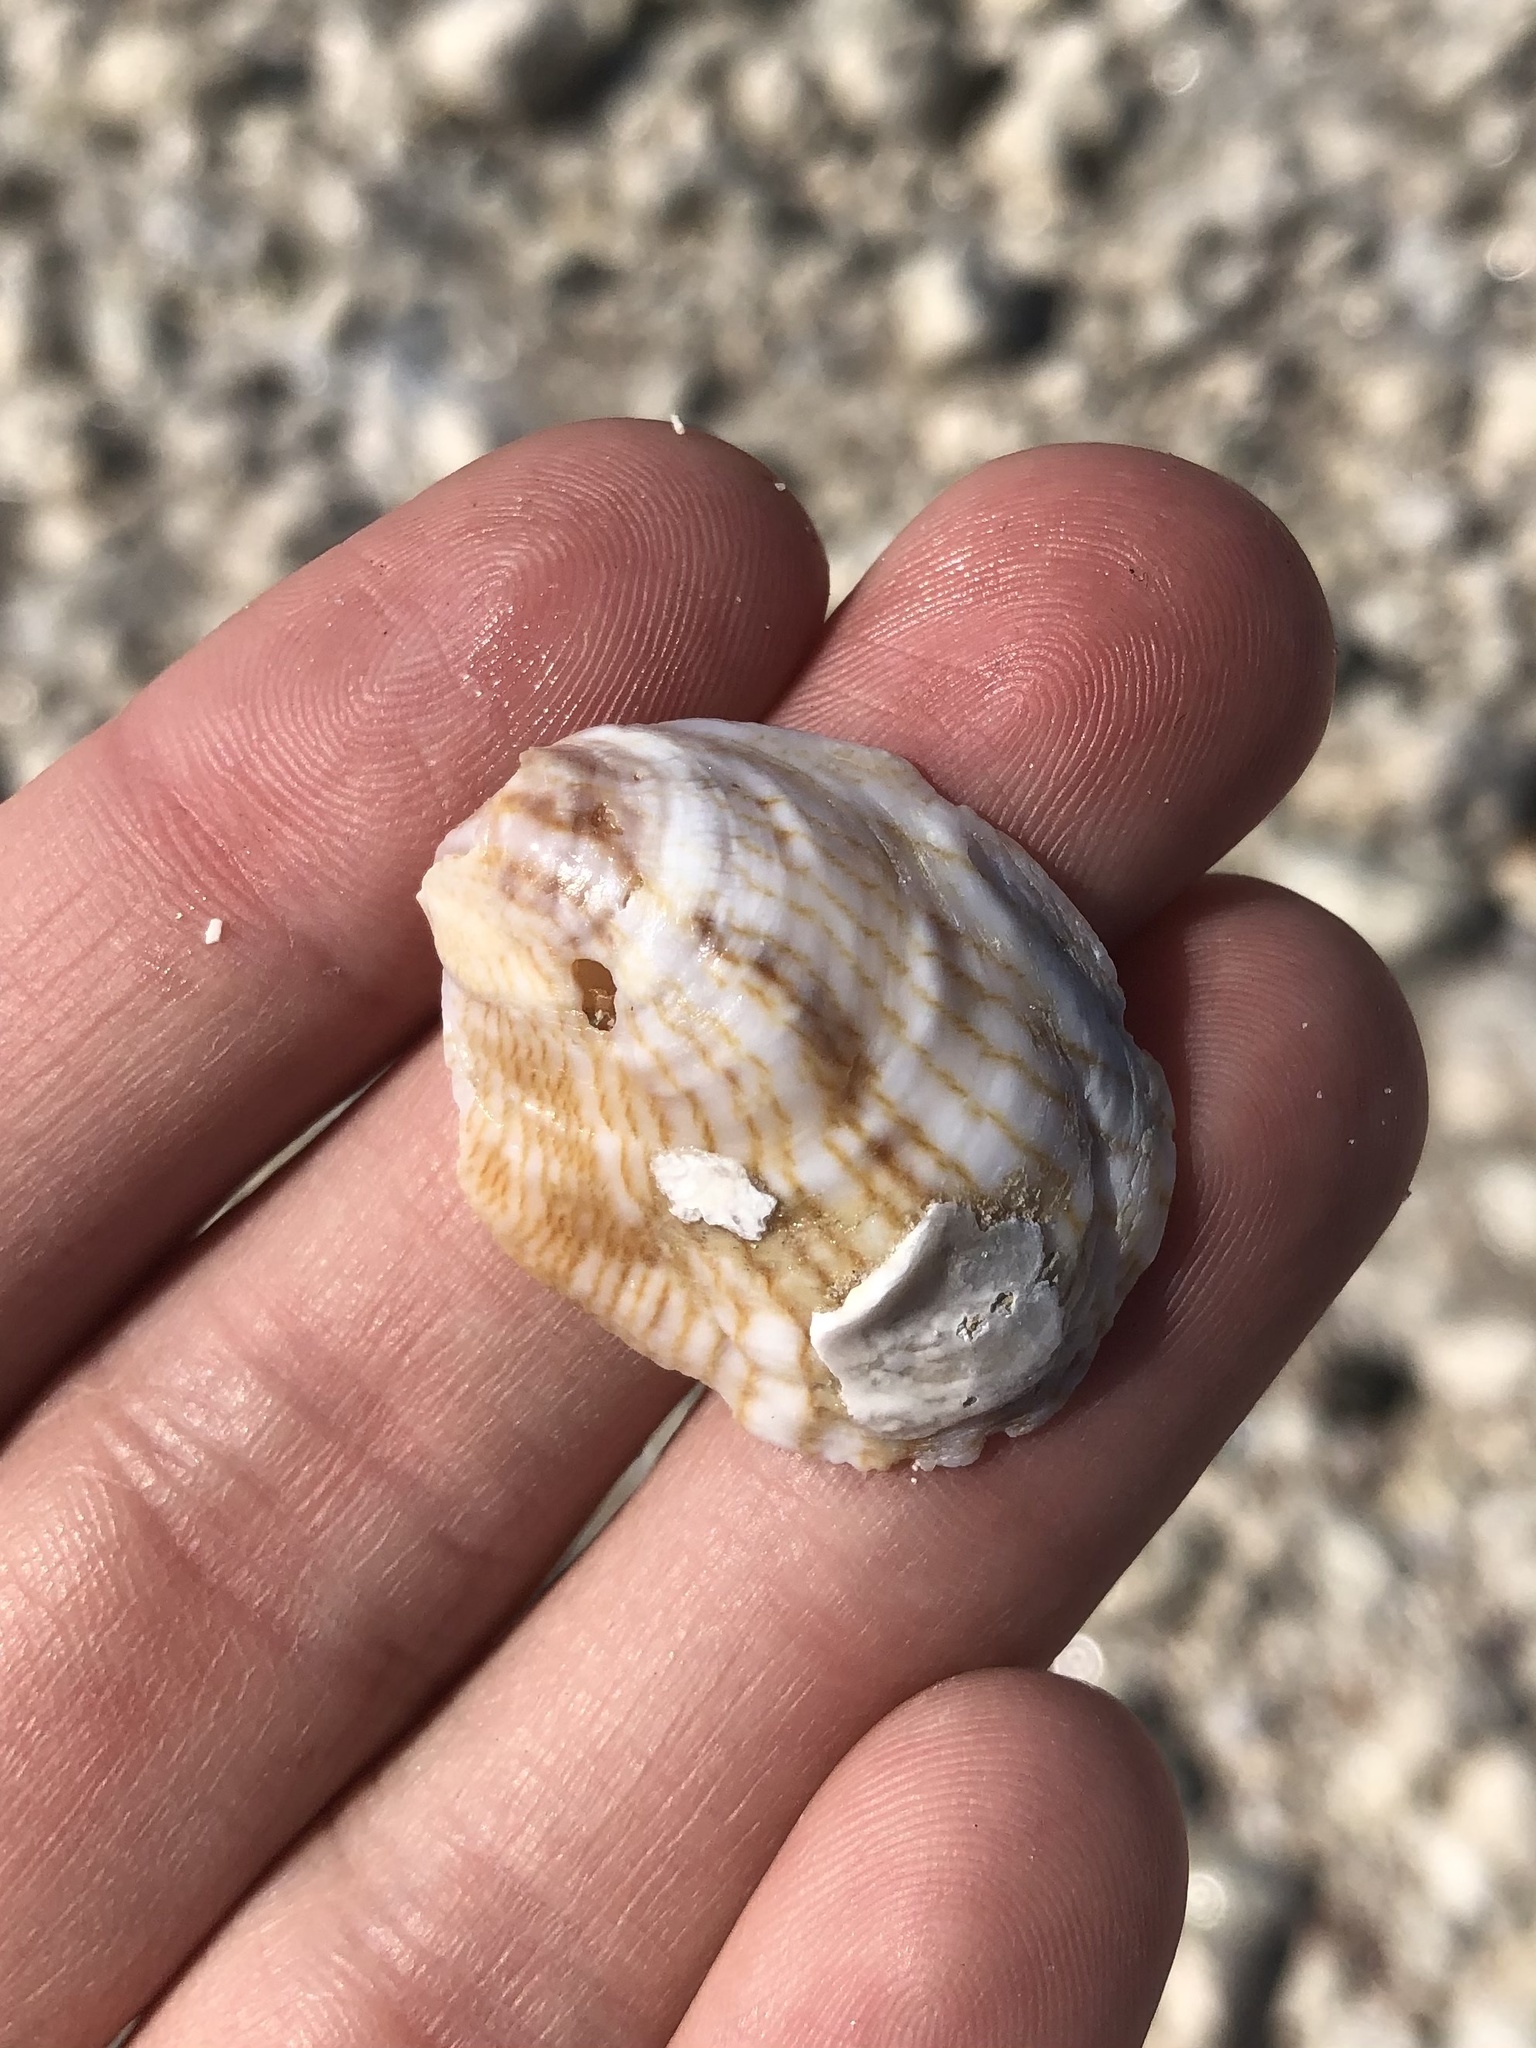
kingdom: Animalia
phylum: Mollusca
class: Gastropoda
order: Littorinimorpha
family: Calyptraeidae
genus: Crepidula
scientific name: Crepidula fornicata
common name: Slipper limpet
